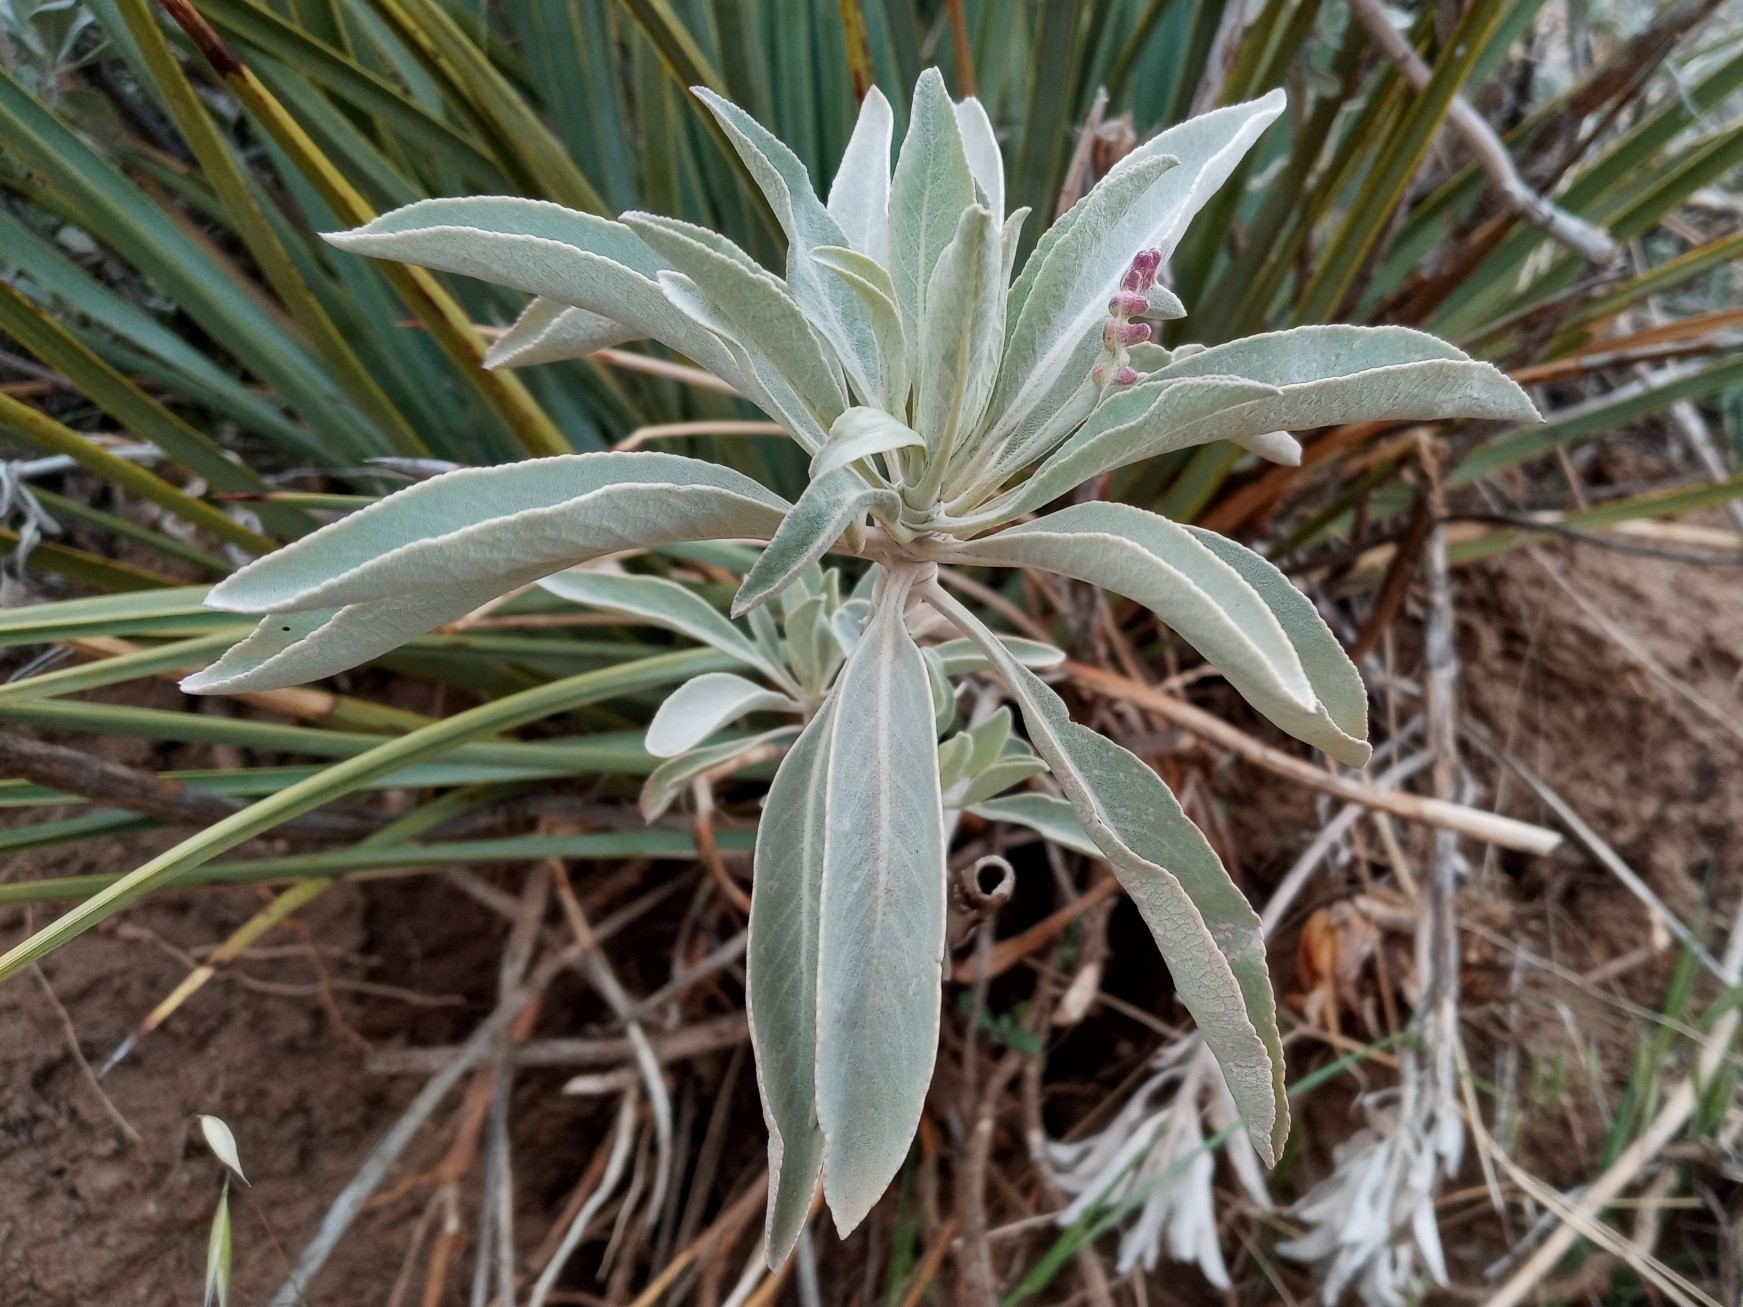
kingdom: Plantae
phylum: Tracheophyta
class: Magnoliopsida
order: Lamiales
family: Lamiaceae
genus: Salvia
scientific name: Salvia apiana
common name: White sage
